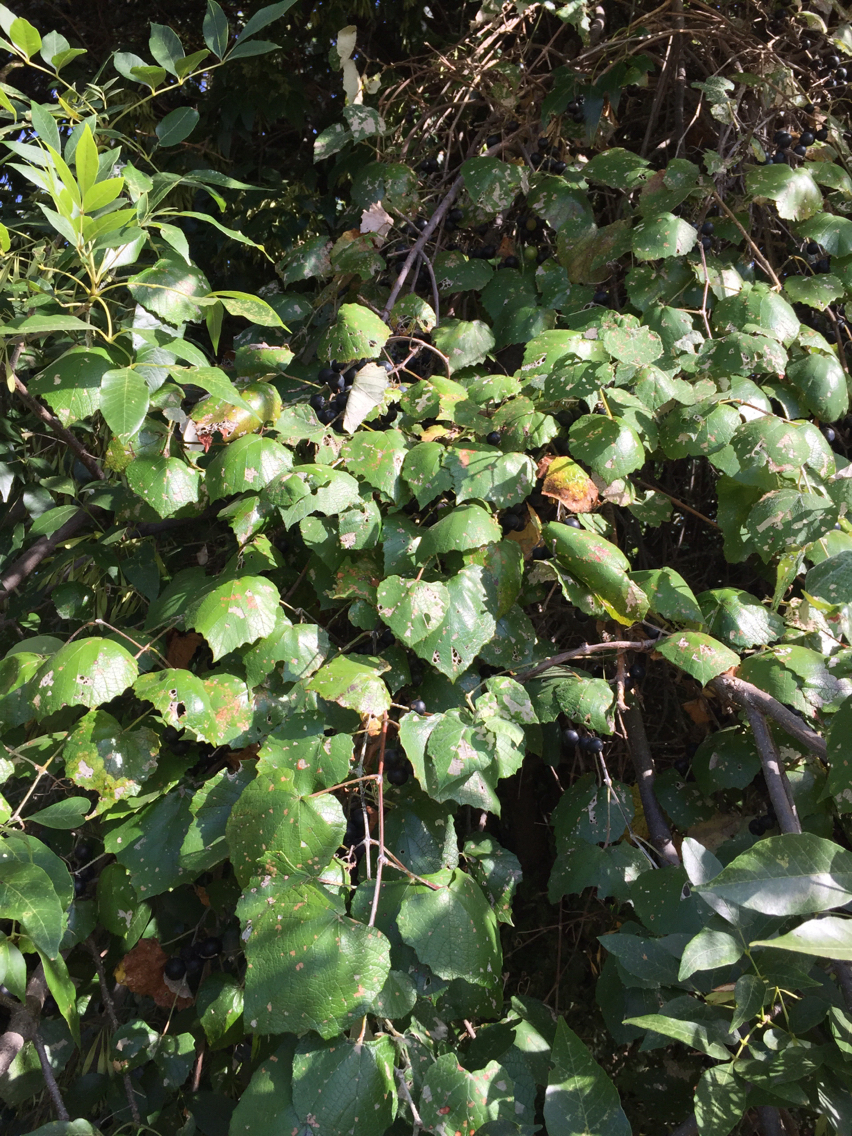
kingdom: Plantae
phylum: Tracheophyta
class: Magnoliopsida
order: Vitales
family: Vitaceae
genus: Vitis
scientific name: Vitis mustangensis
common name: Mustang grape
